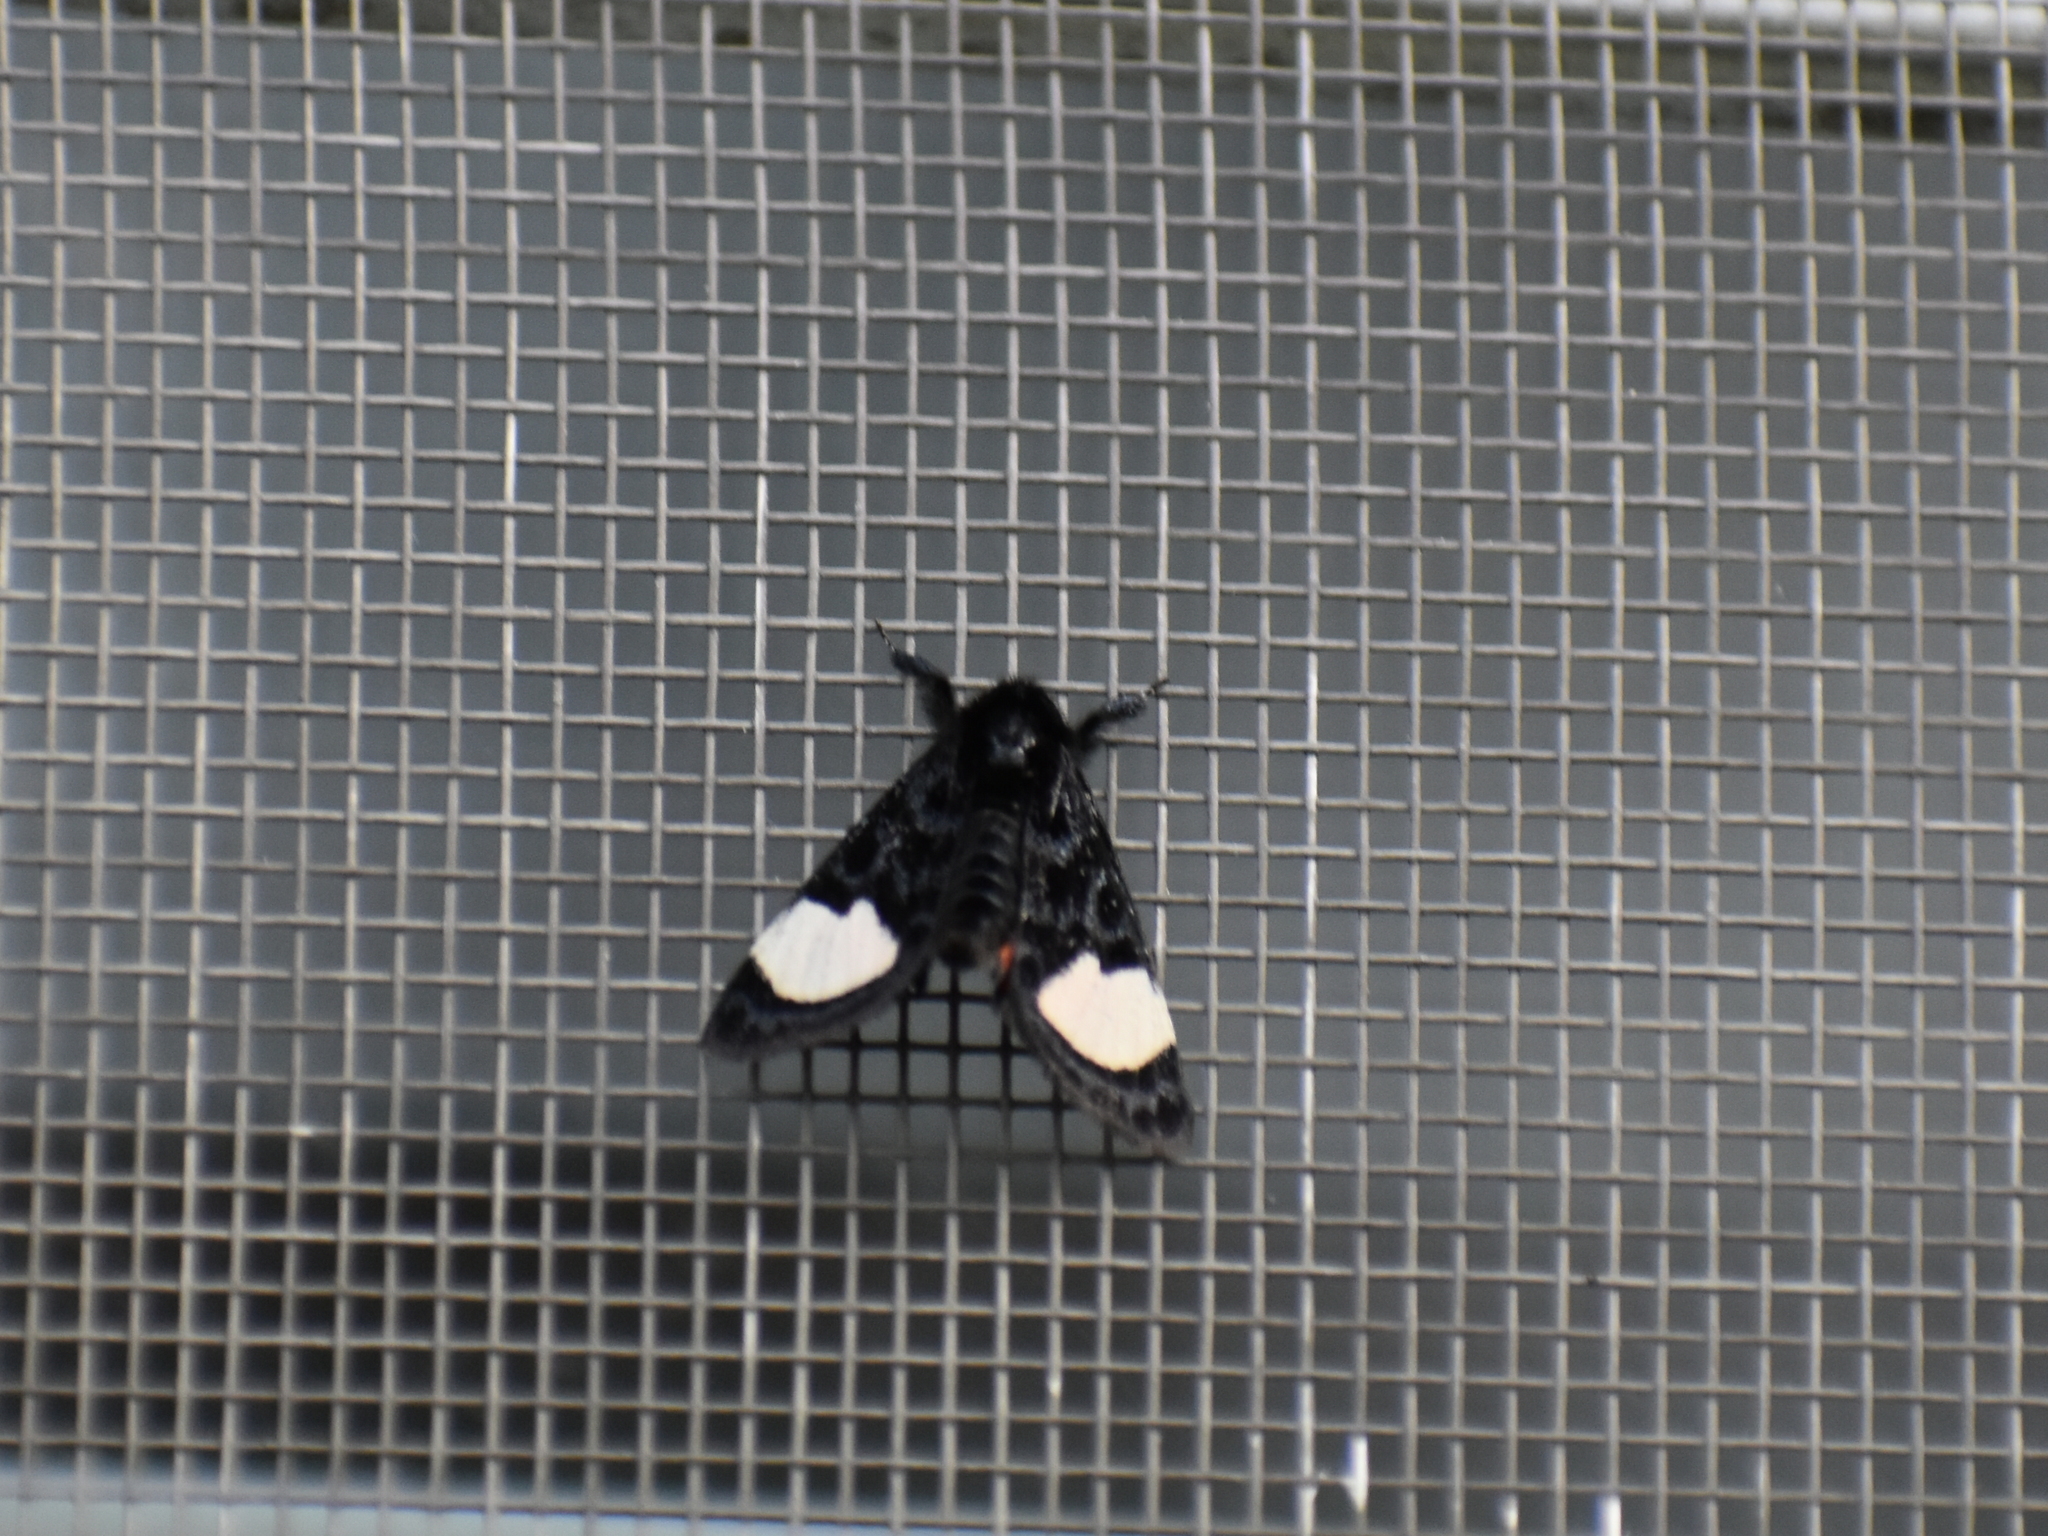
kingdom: Animalia
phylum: Arthropoda
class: Insecta
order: Lepidoptera
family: Noctuidae
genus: Psychomorpha
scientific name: Psychomorpha epimenis
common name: Grapevine epimenis moth
